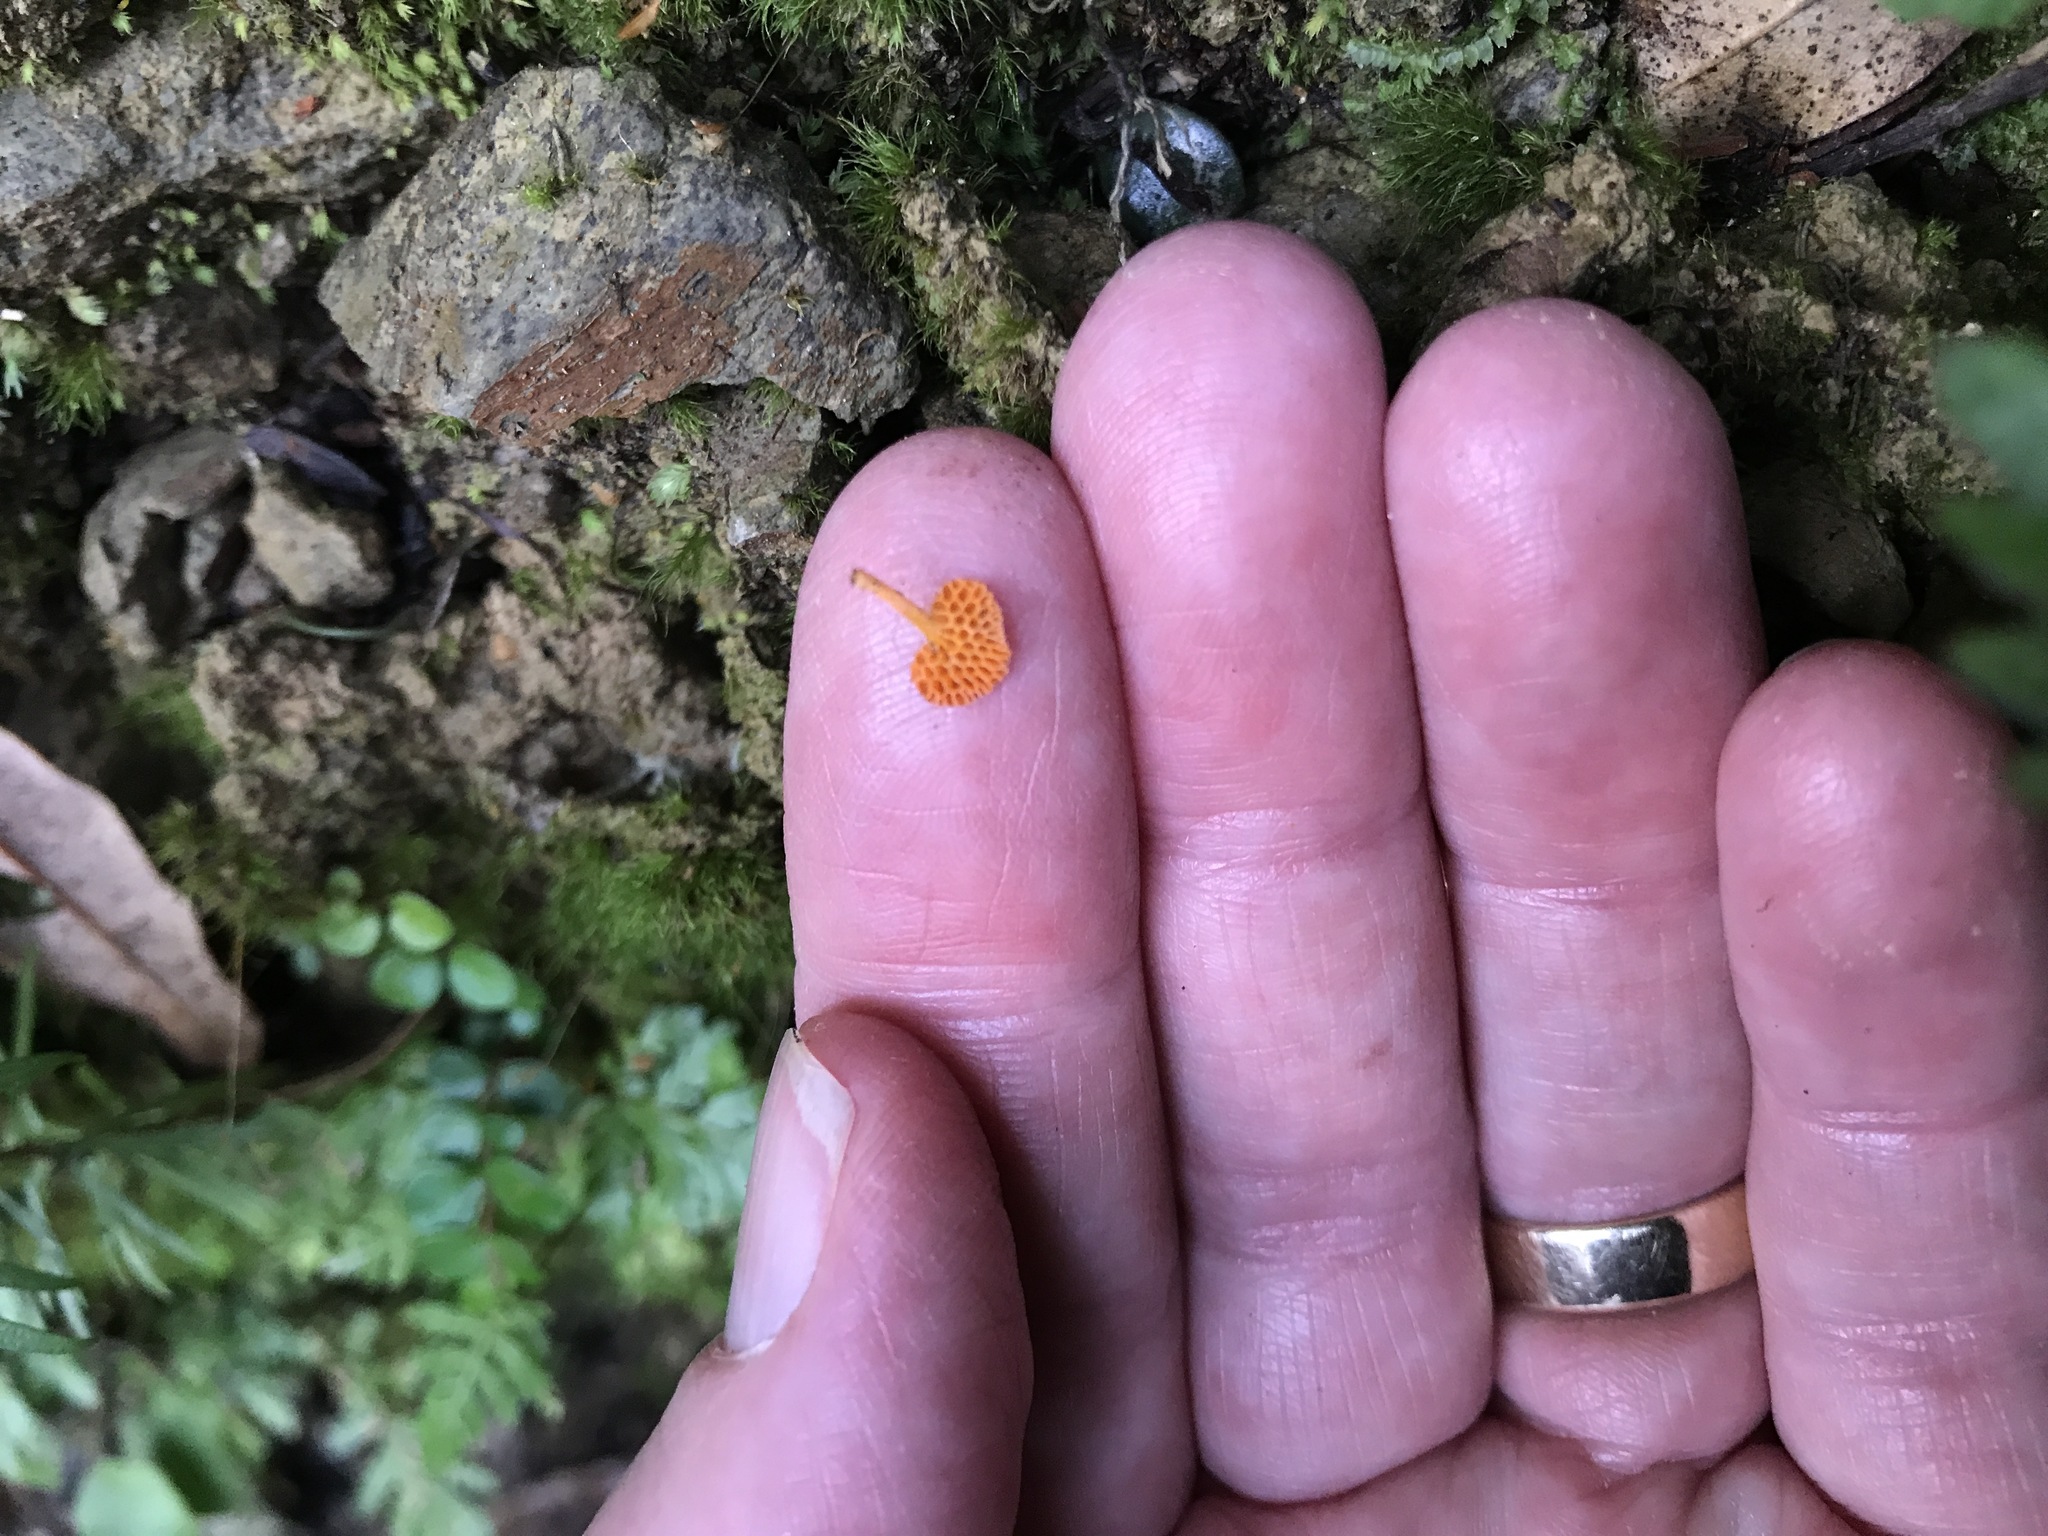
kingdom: Fungi
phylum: Basidiomycota
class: Agaricomycetes
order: Agaricales
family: Mycenaceae
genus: Favolaschia
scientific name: Favolaschia claudopus
